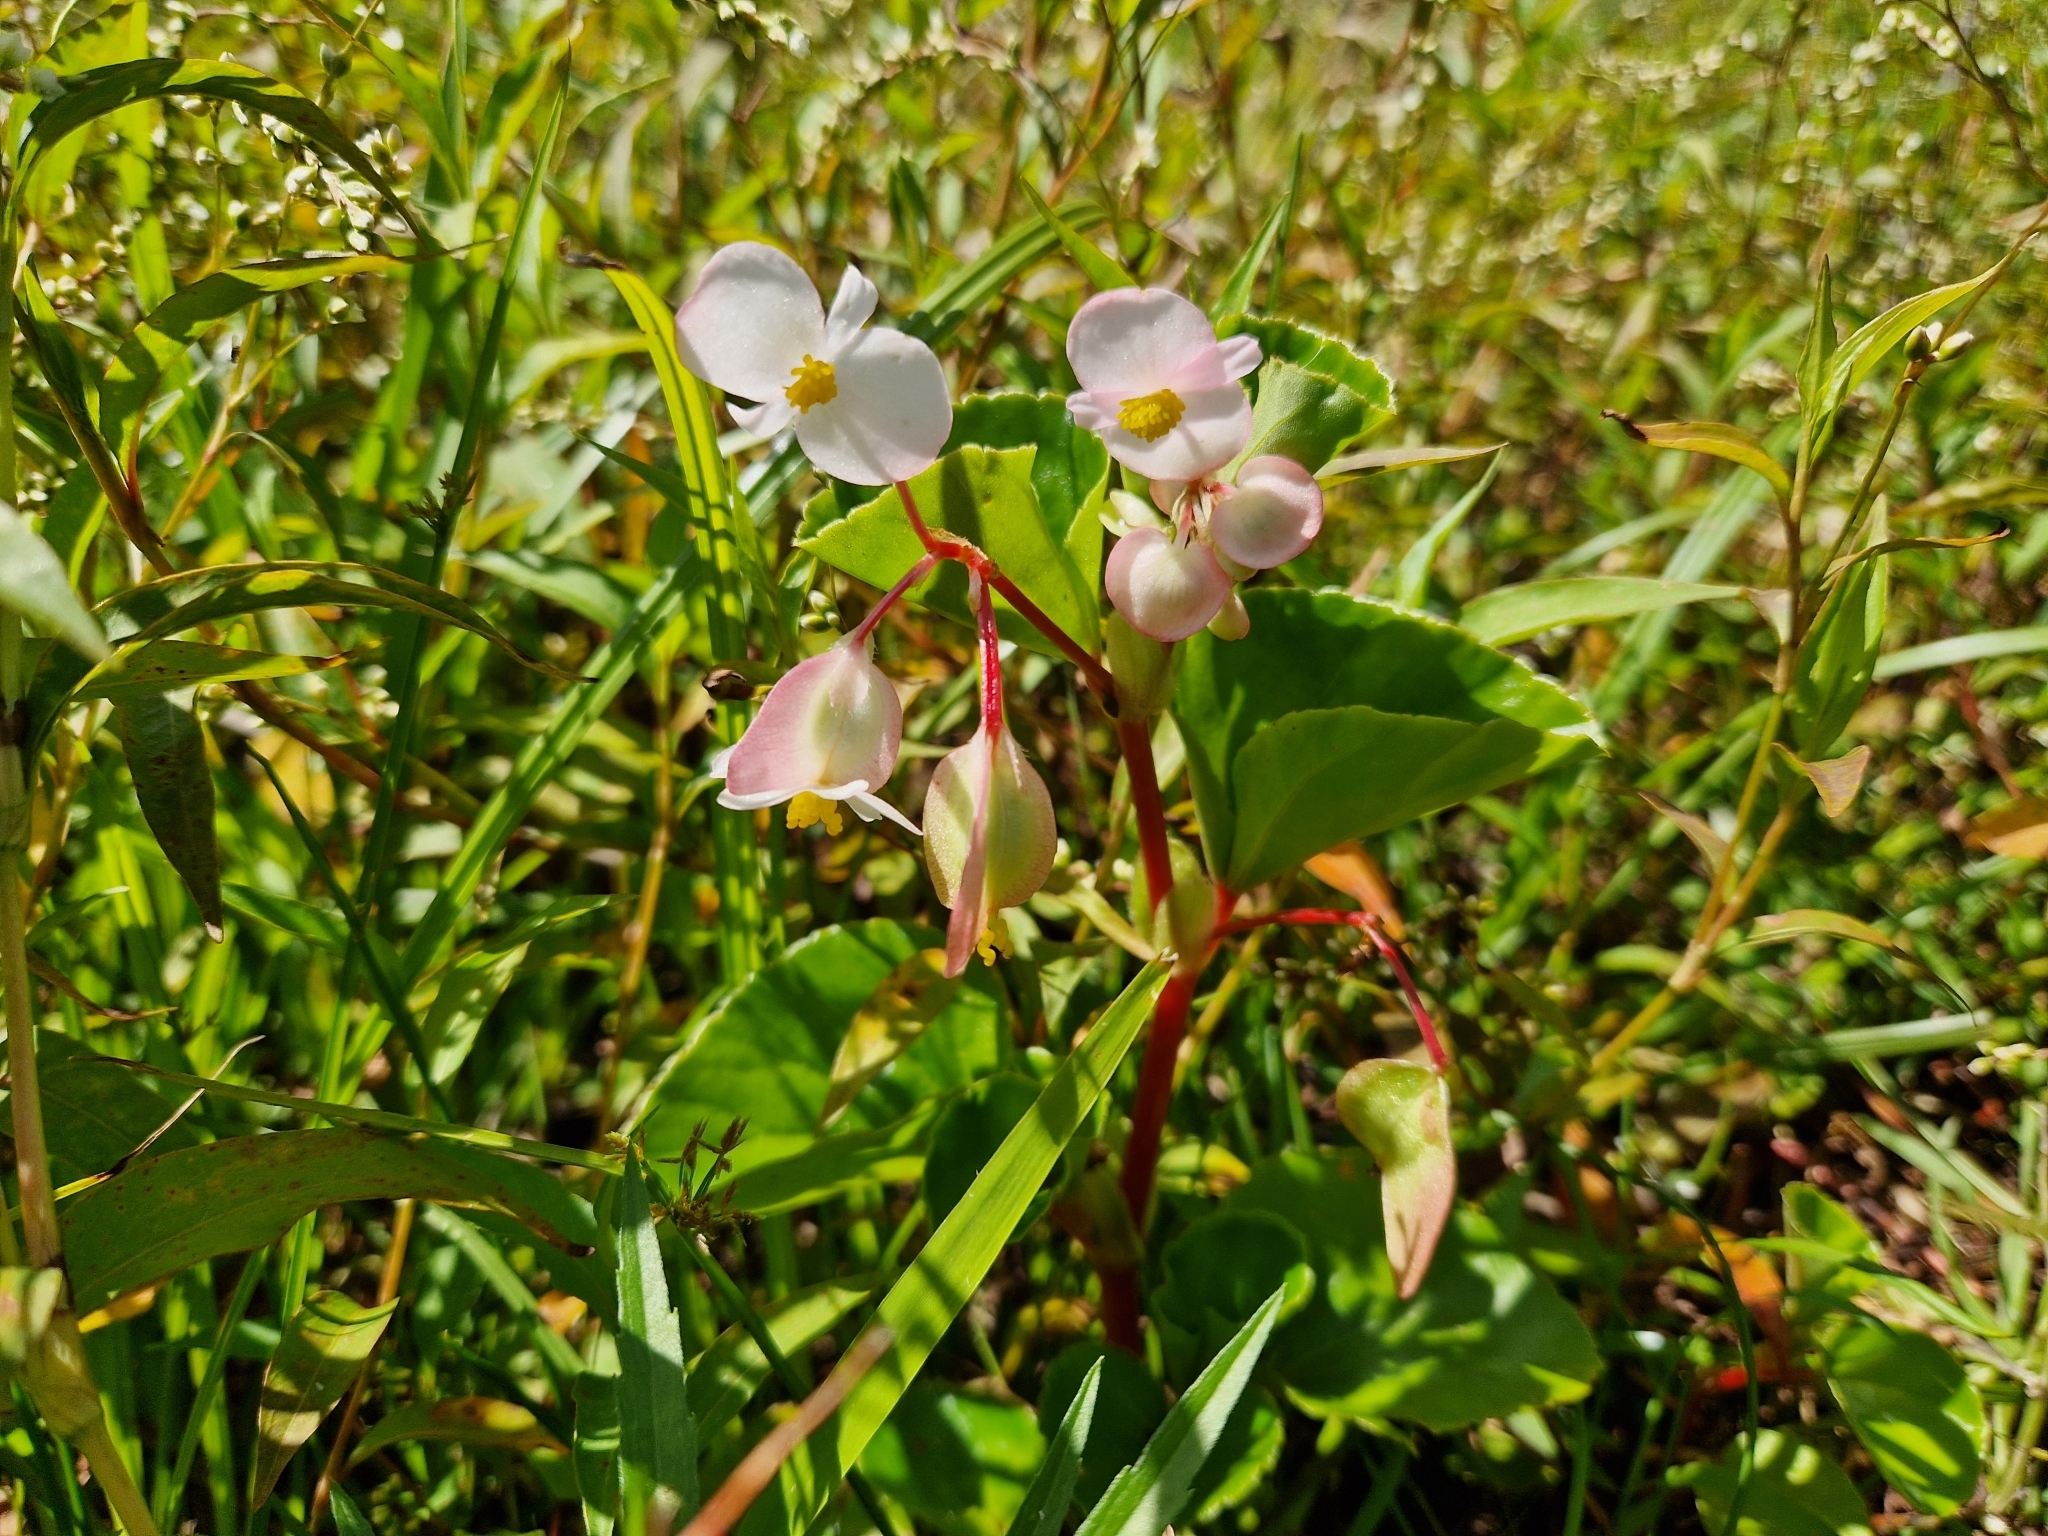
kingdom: Plantae
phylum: Tracheophyta
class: Magnoliopsida
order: Cucurbitales
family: Begoniaceae
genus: Begonia
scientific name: Begonia cucullata
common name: Clubbed begonia
